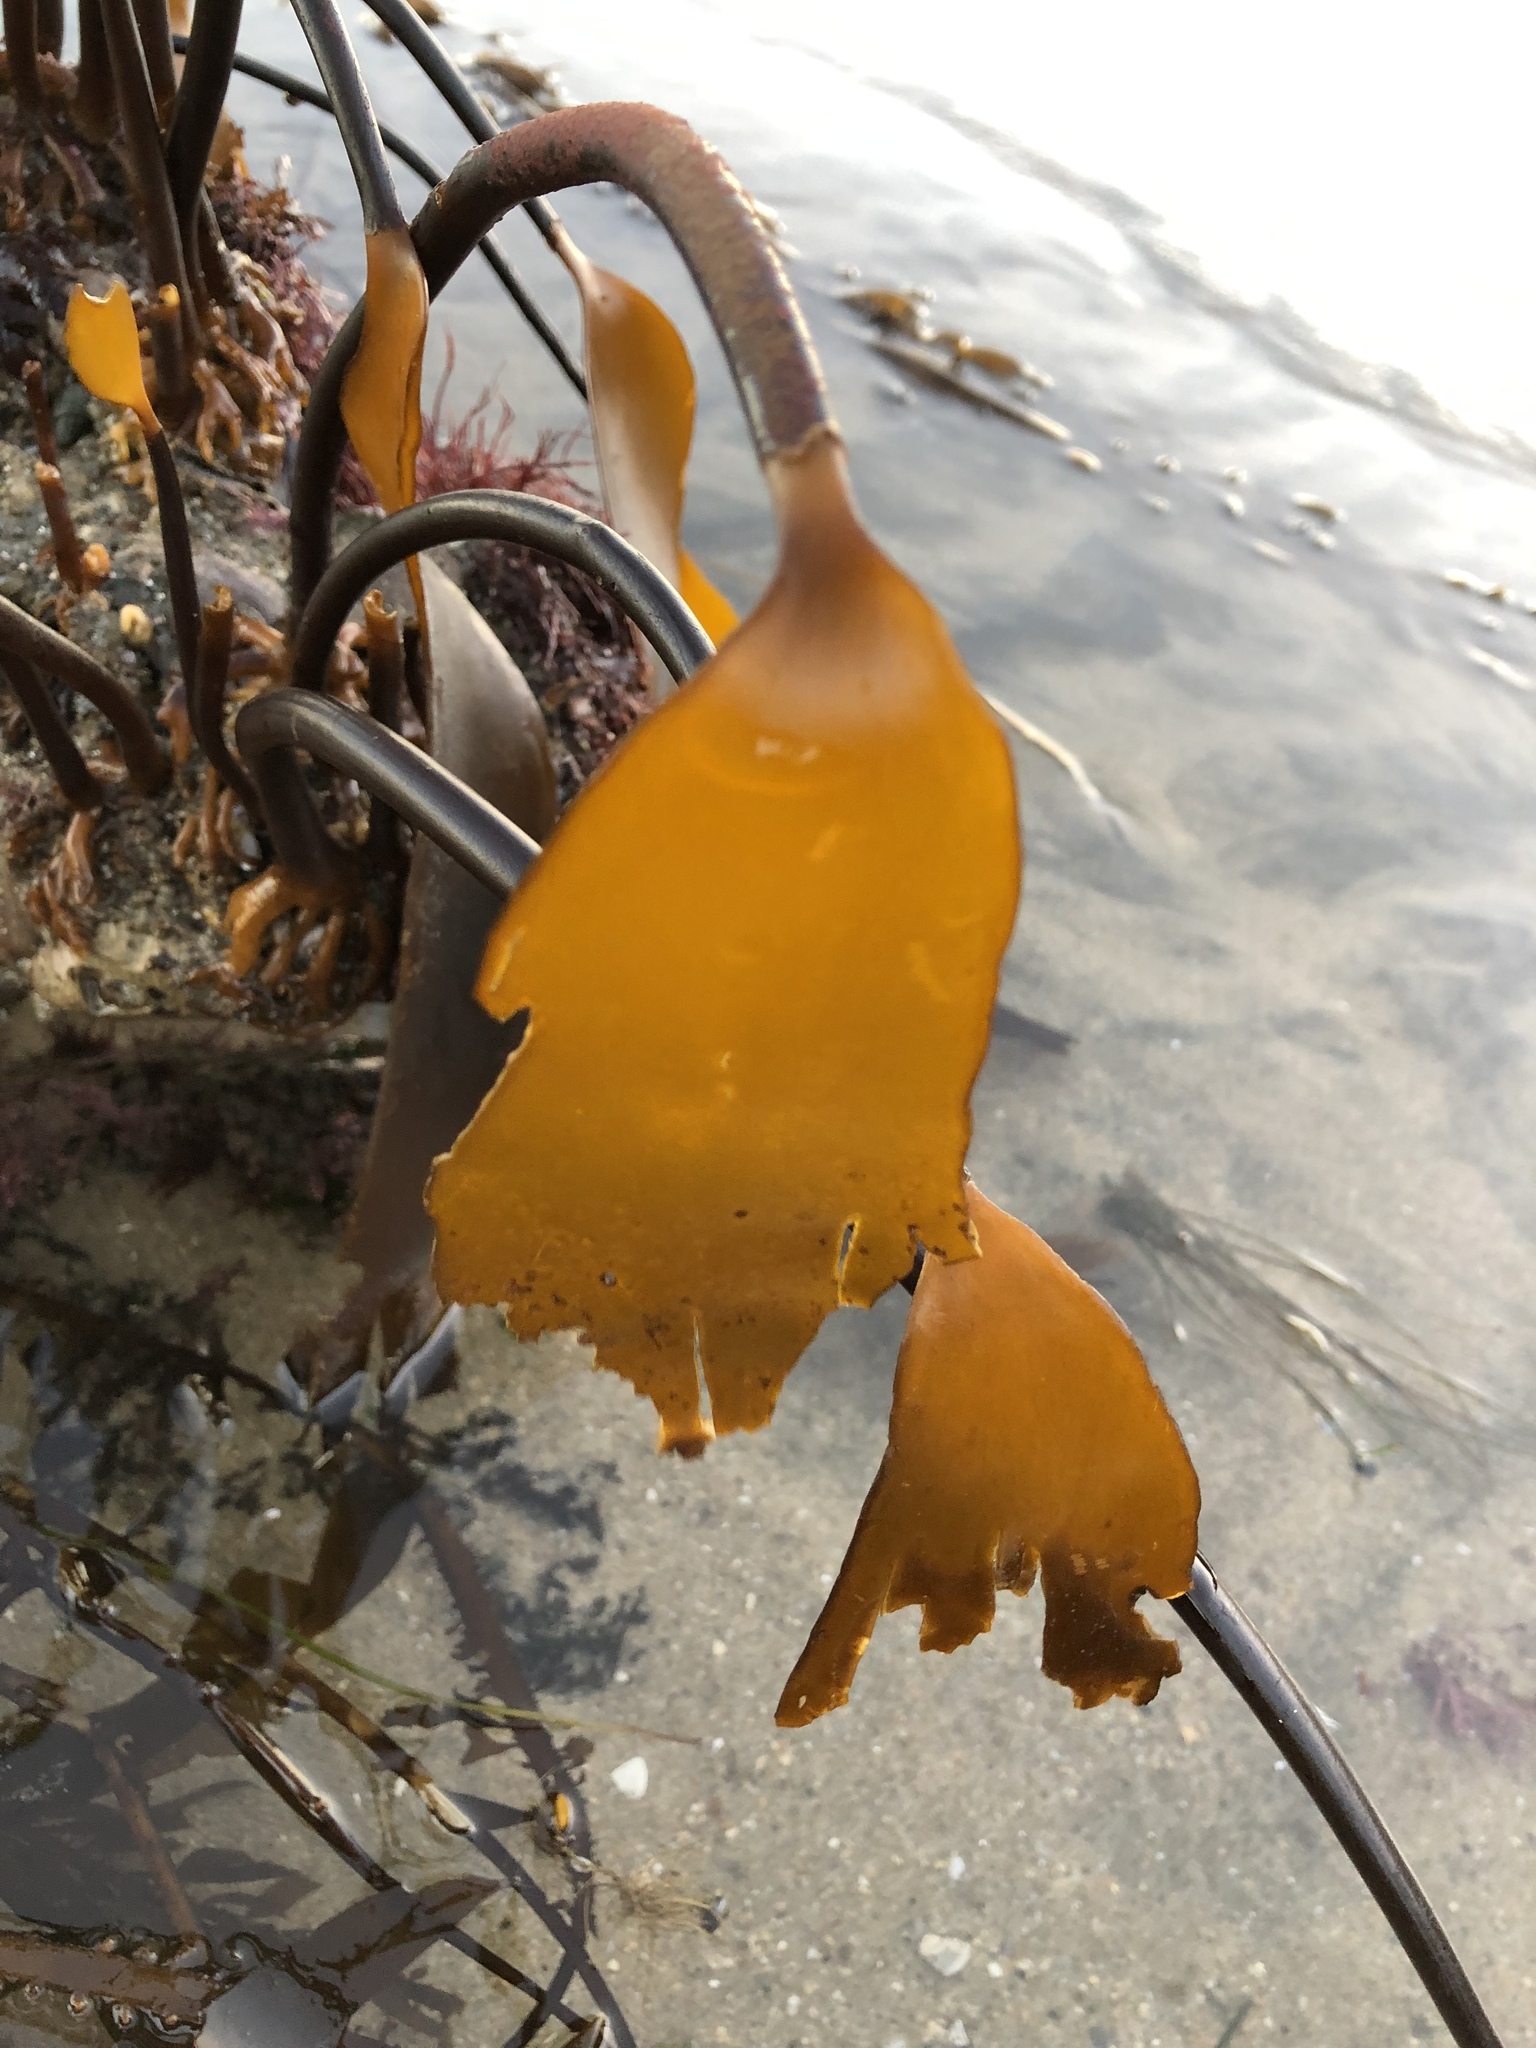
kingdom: Chromista
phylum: Ochrophyta
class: Phaeophyceae
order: Laminariales
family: Laminariaceae
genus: Laminaria
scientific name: Laminaria setchellii
